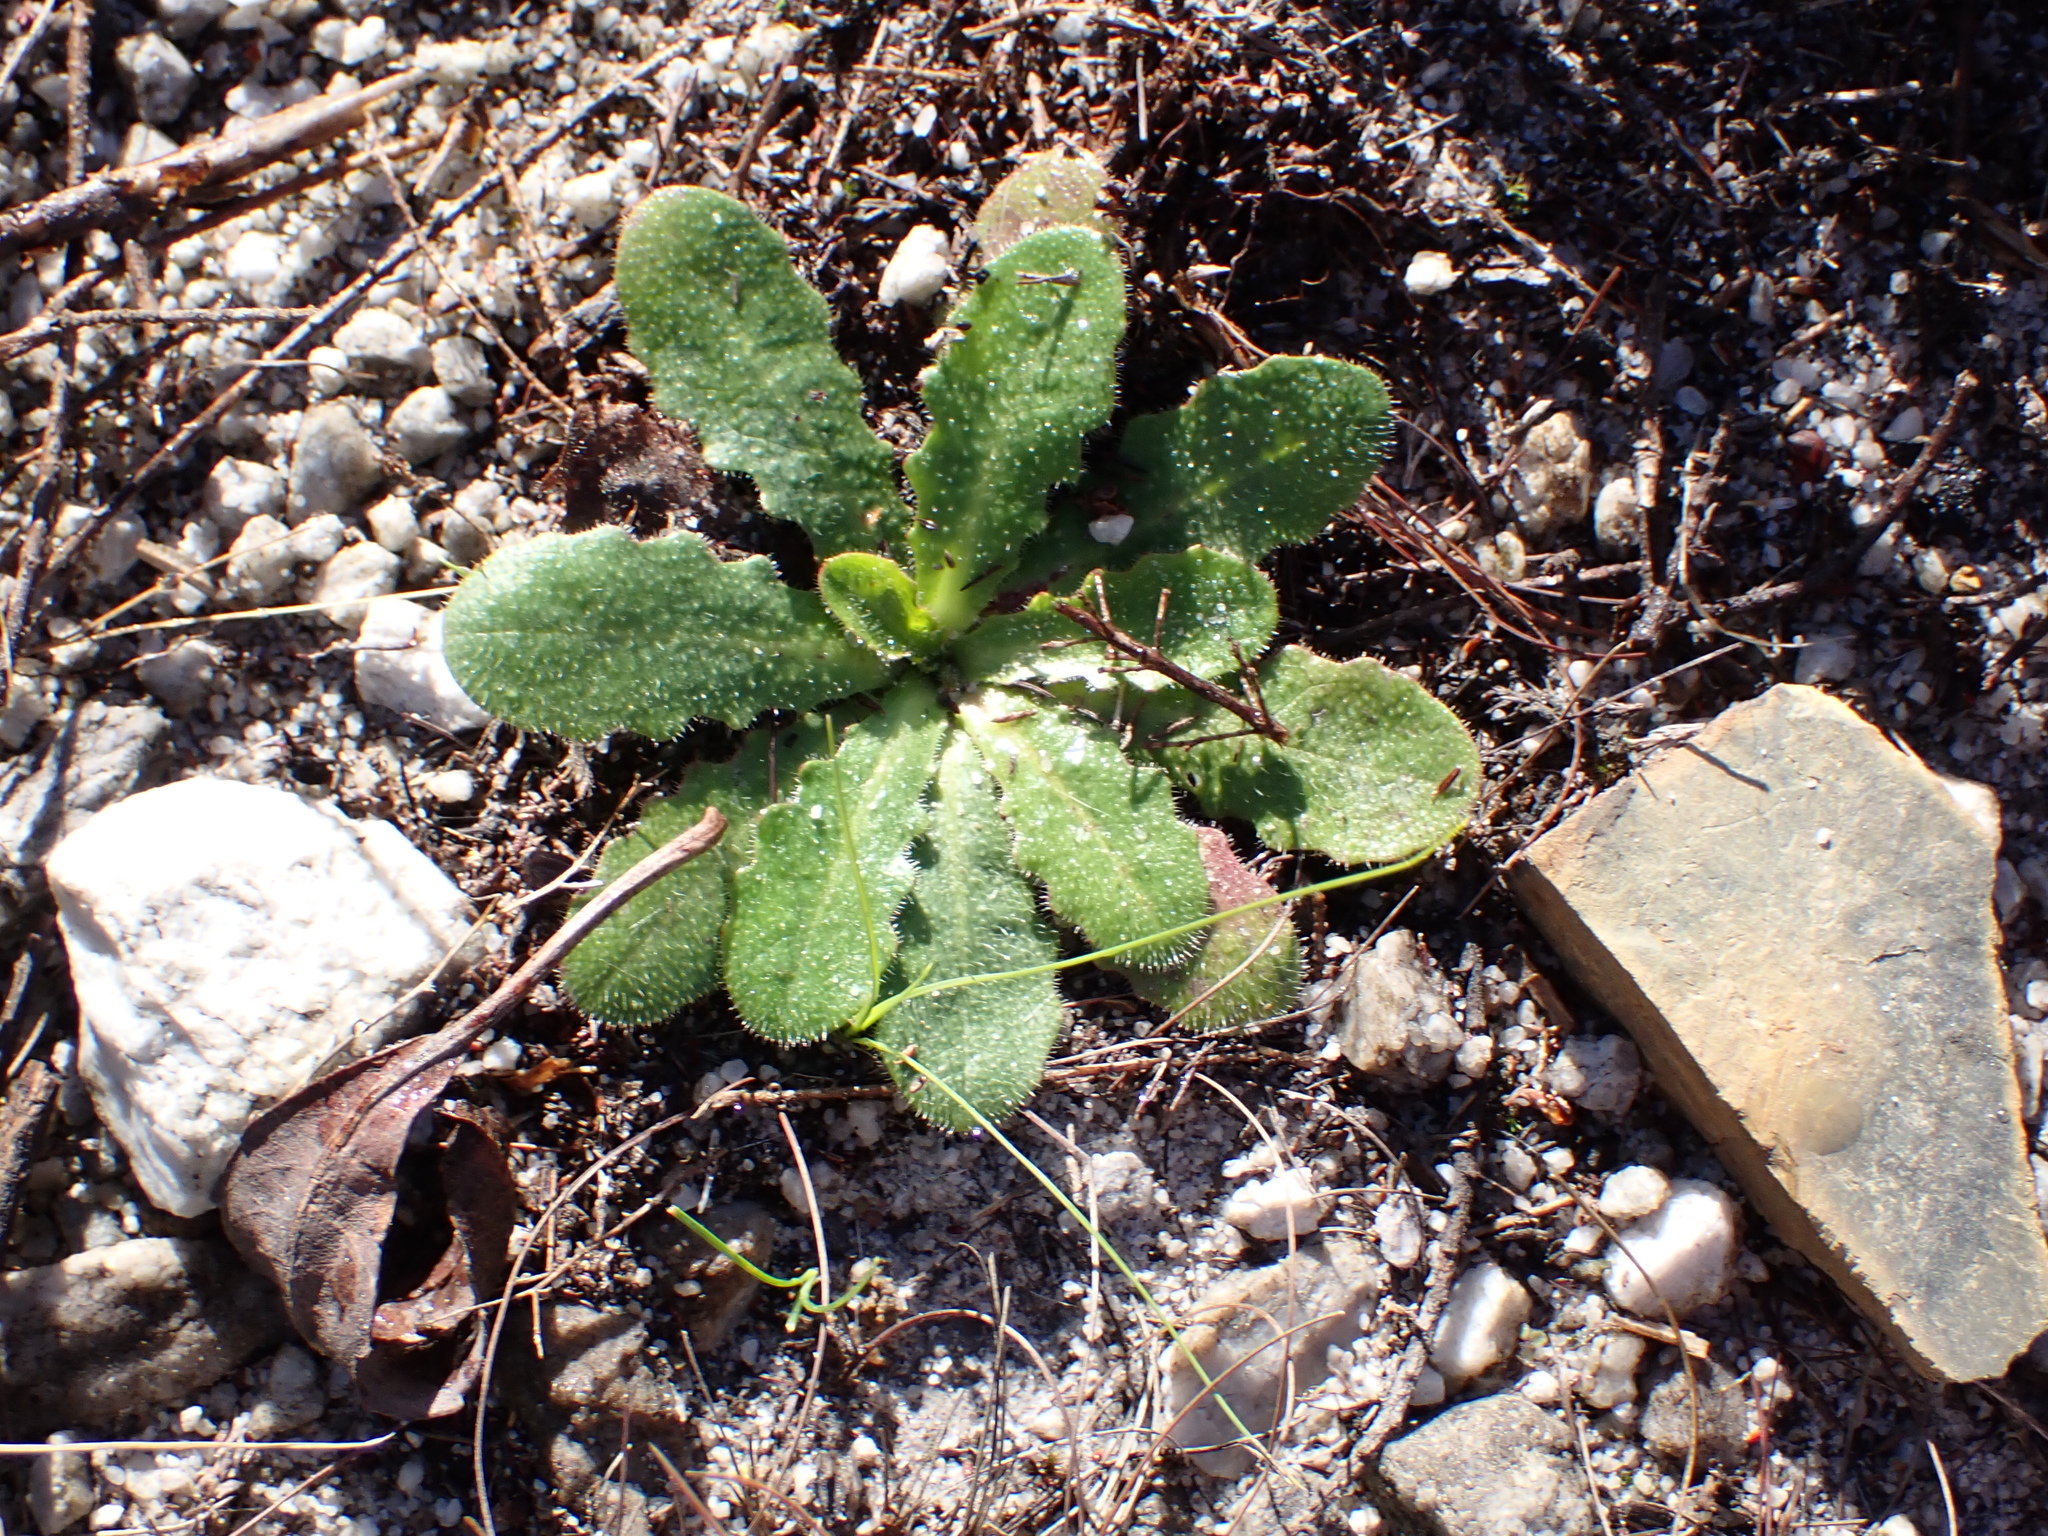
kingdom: Plantae
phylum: Tracheophyta
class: Magnoliopsida
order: Asterales
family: Asteraceae
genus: Hypochaeris
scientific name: Hypochaeris radicata
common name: Flatweed
